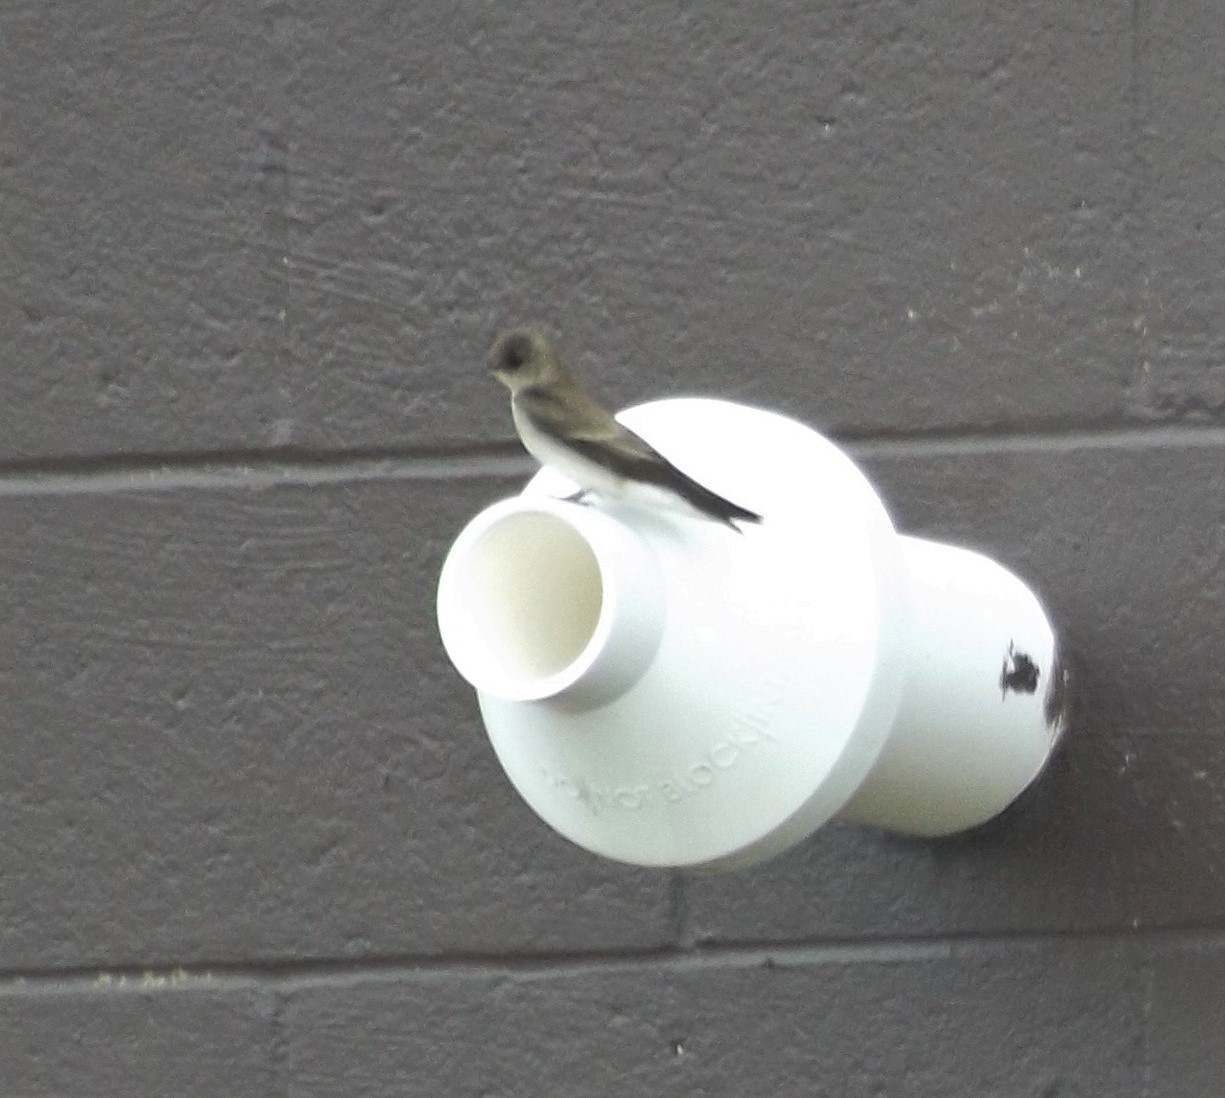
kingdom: Animalia
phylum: Chordata
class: Aves
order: Passeriformes
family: Hirundinidae
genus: Stelgidopteryx
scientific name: Stelgidopteryx serripennis
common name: Northern rough-winged swallow
